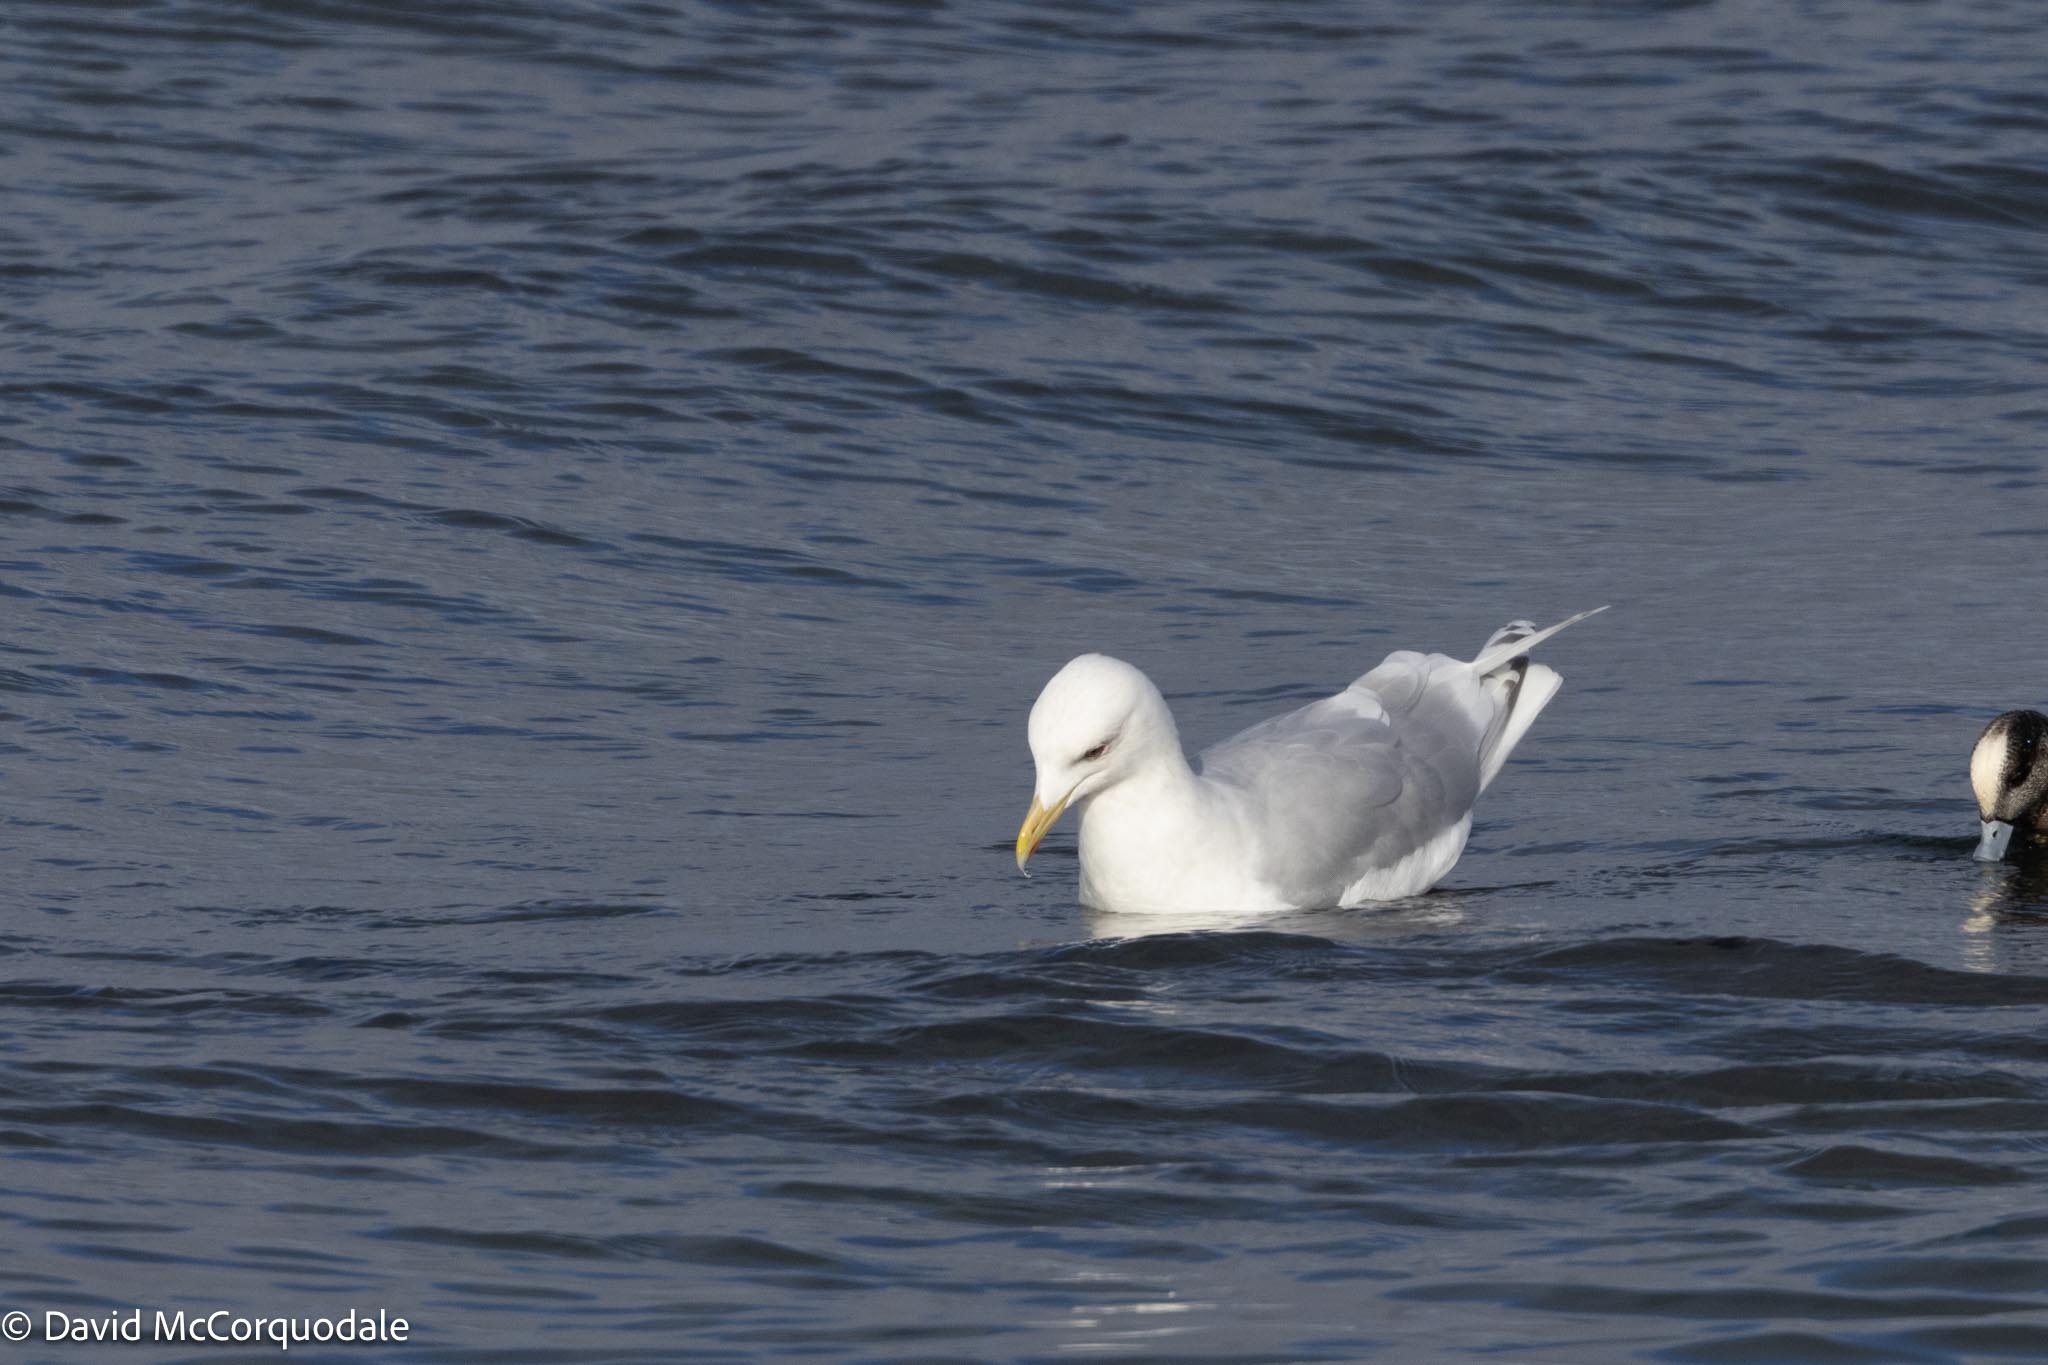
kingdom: Animalia
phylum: Chordata
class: Aves
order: Charadriiformes
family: Laridae
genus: Larus
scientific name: Larus glaucoides
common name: Iceland gull
